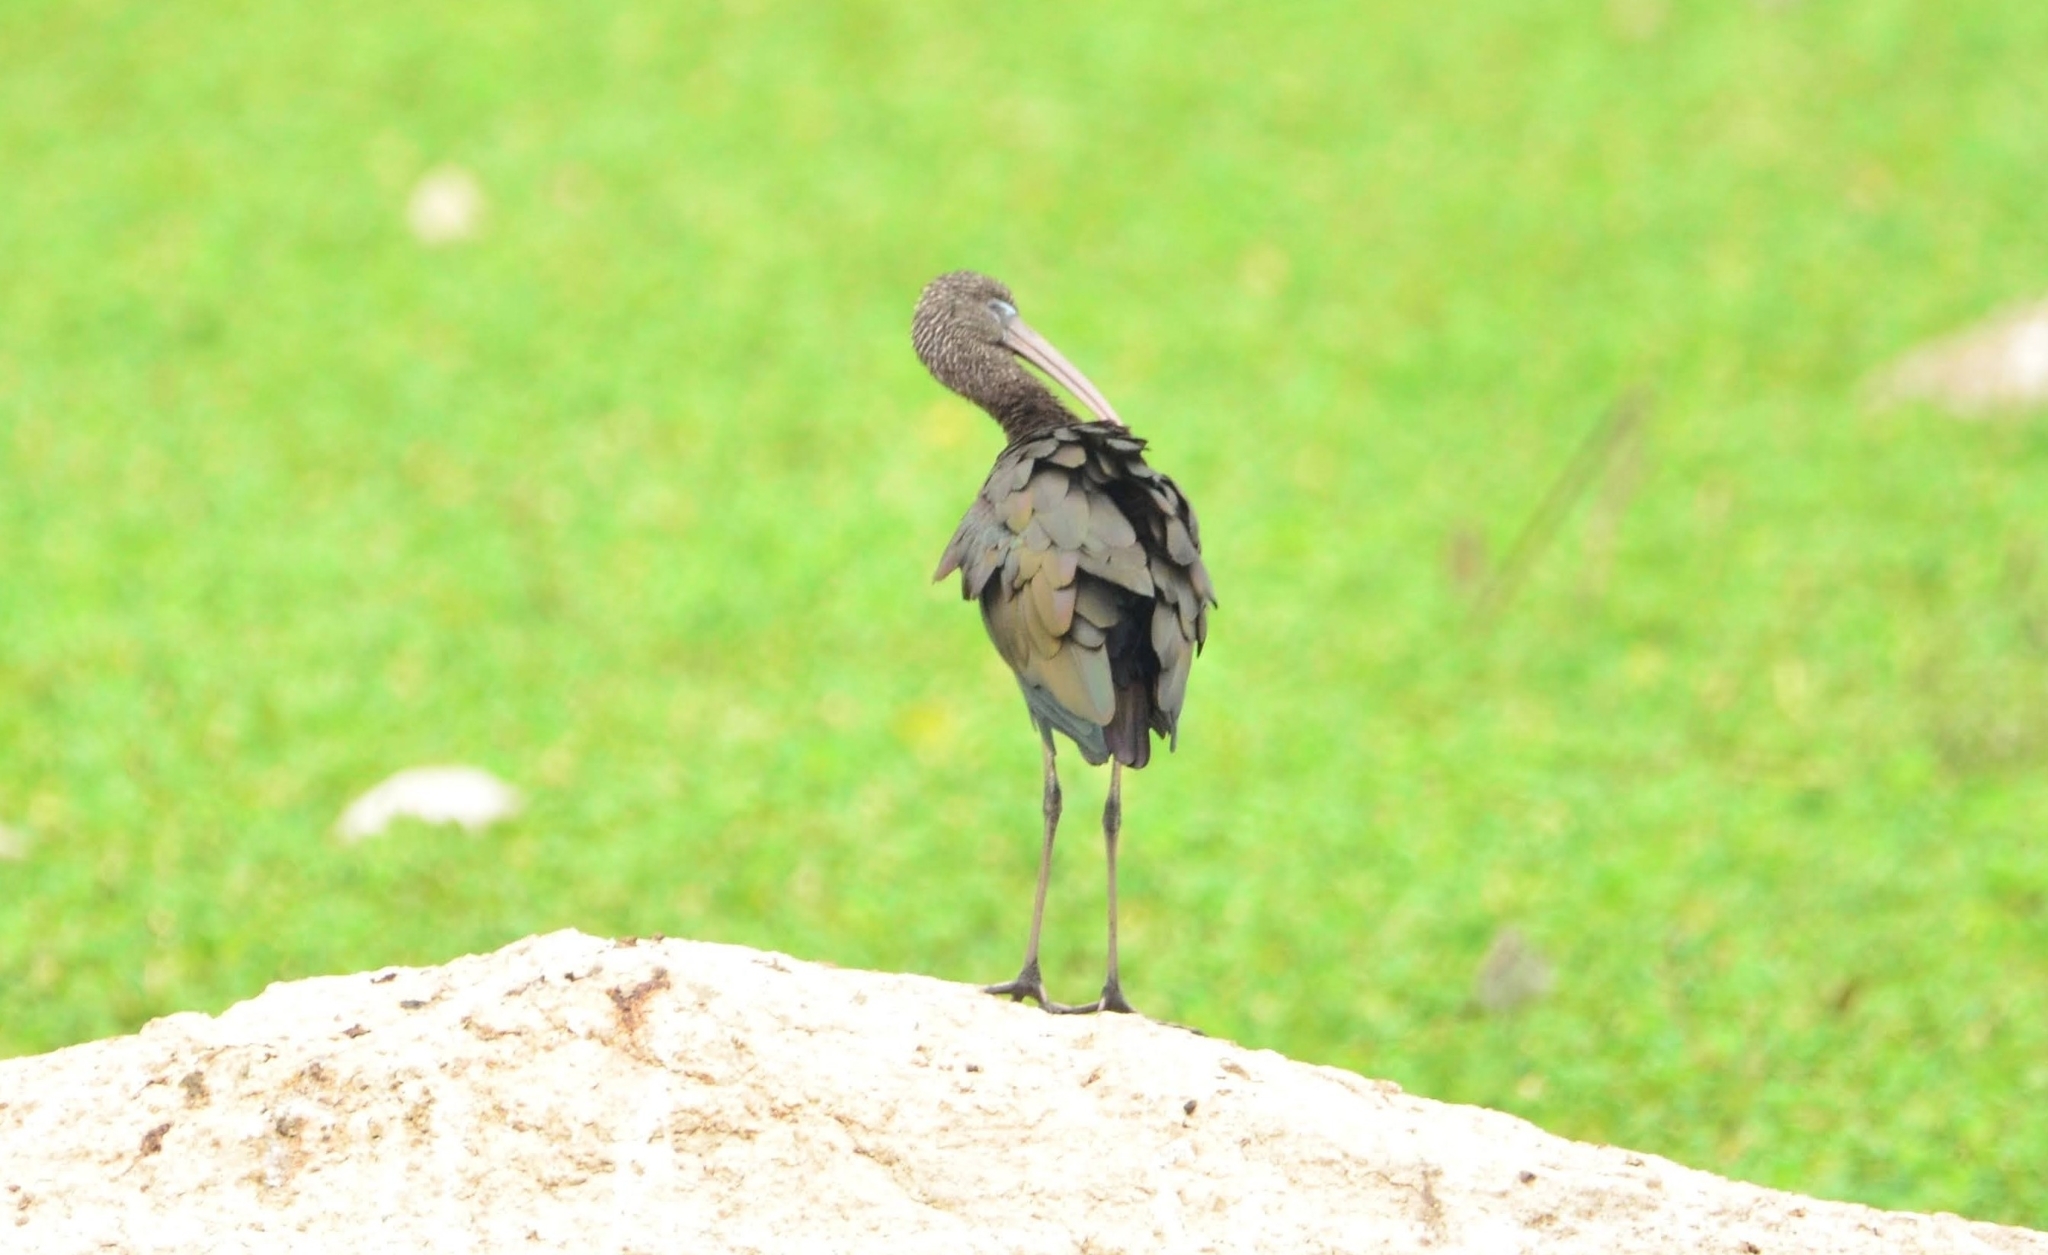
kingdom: Animalia
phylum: Chordata
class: Aves
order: Pelecaniformes
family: Threskiornithidae
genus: Plegadis
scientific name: Plegadis falcinellus
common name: Glossy ibis
